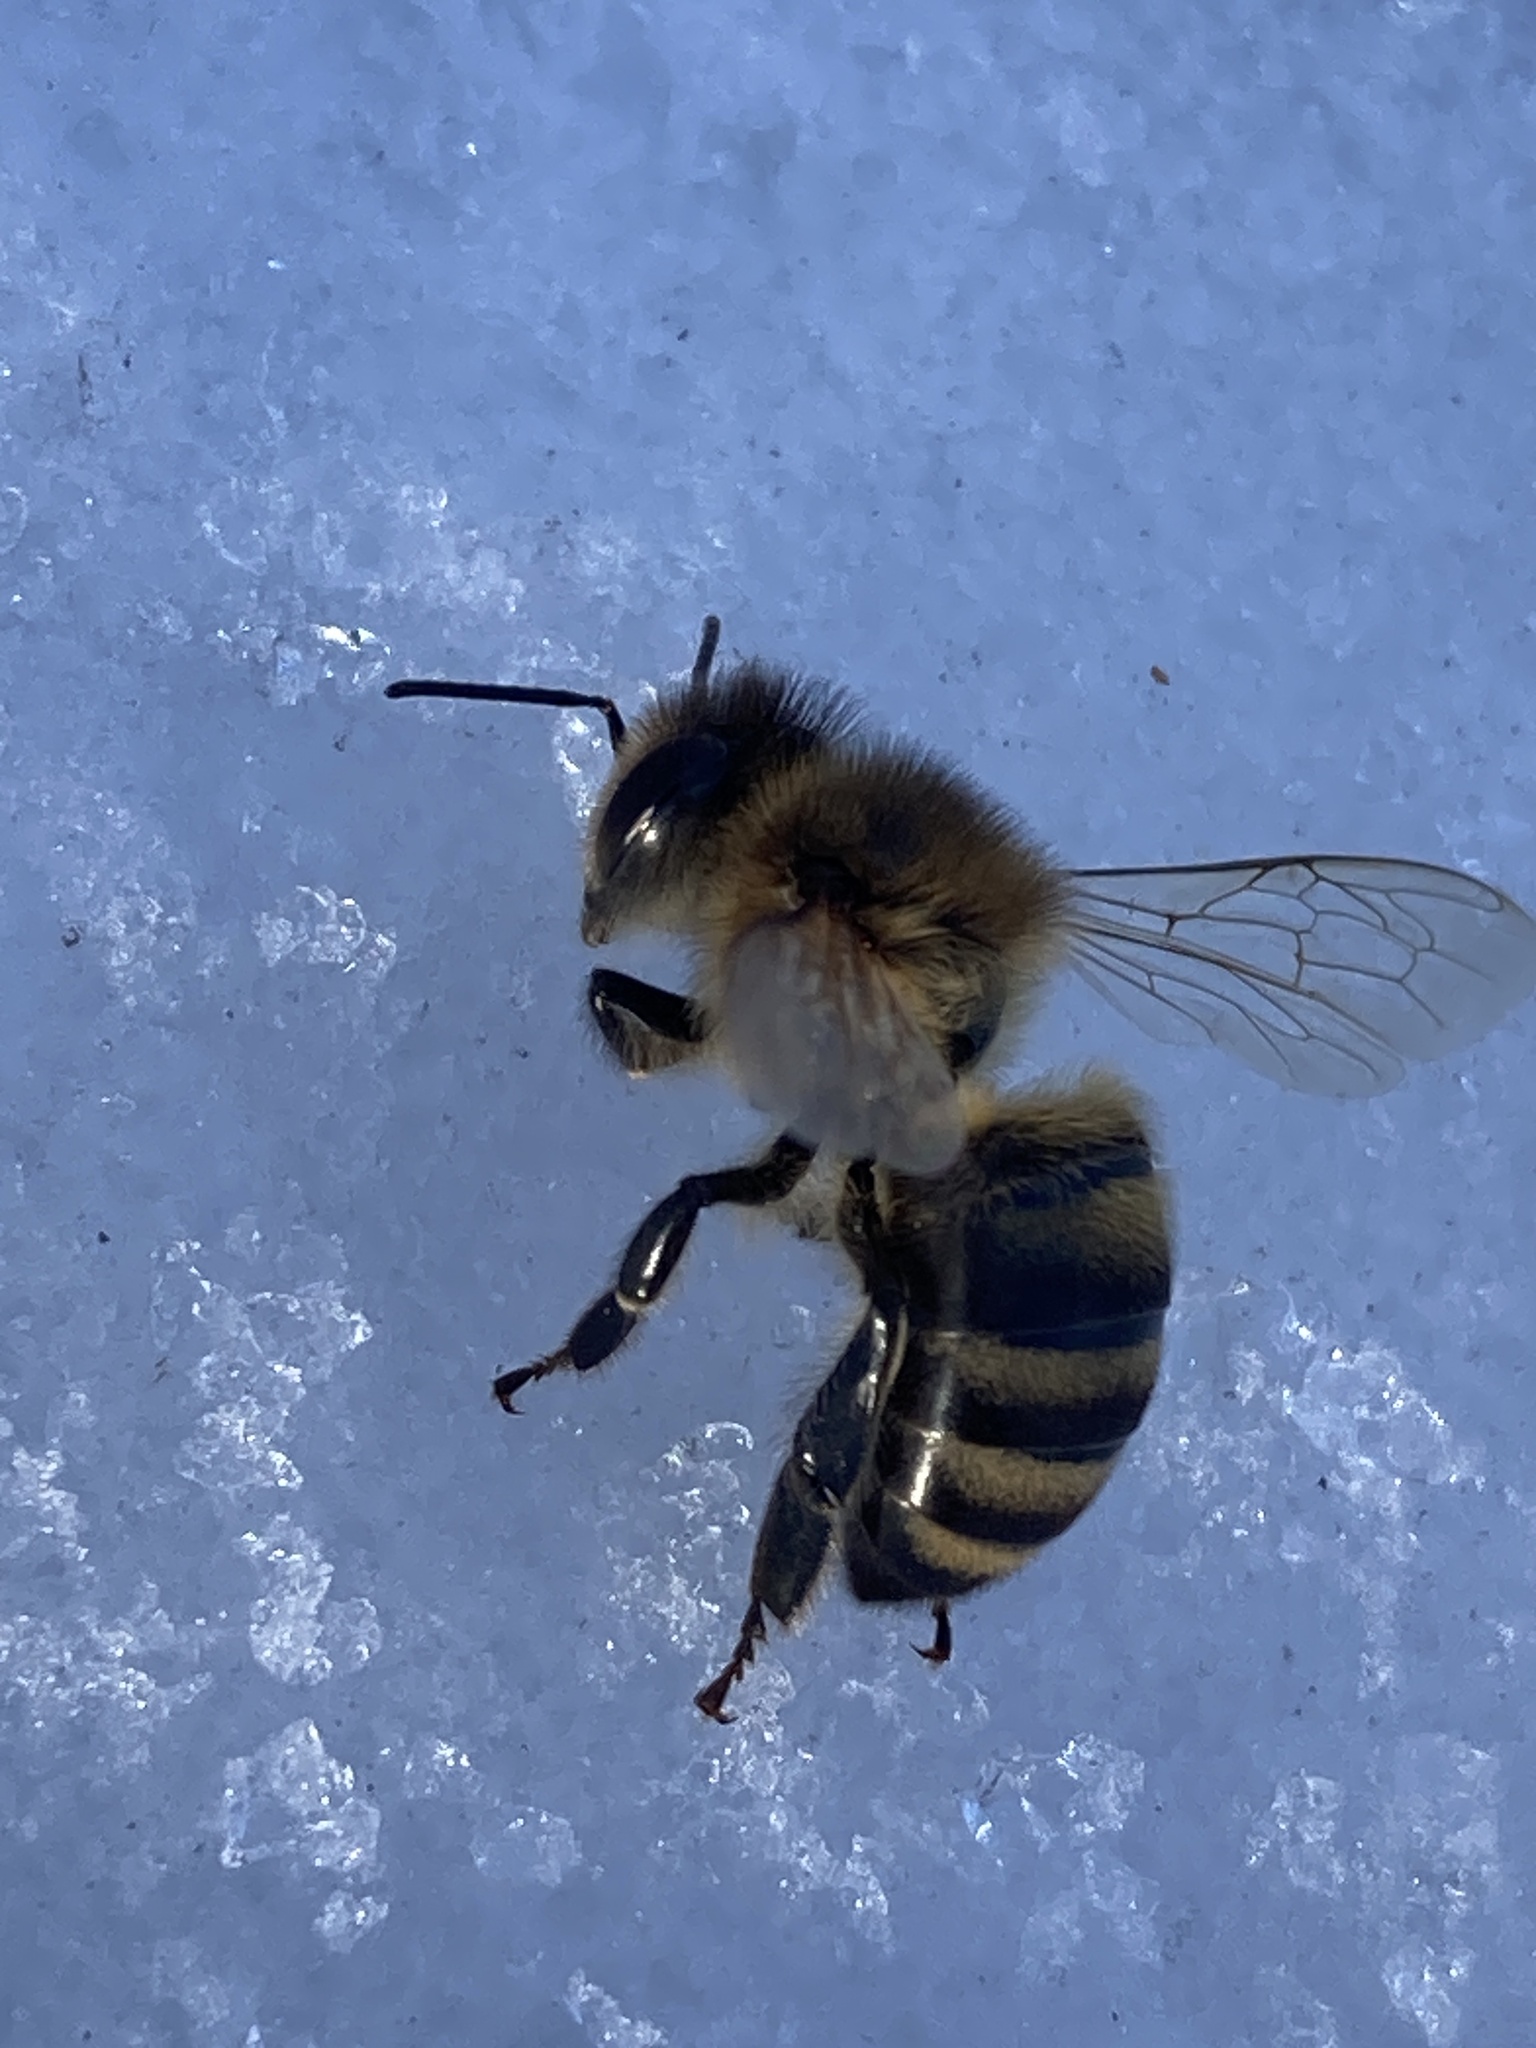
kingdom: Animalia
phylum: Arthropoda
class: Insecta
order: Hymenoptera
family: Apidae
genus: Apis
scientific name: Apis mellifera
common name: Honey bee
